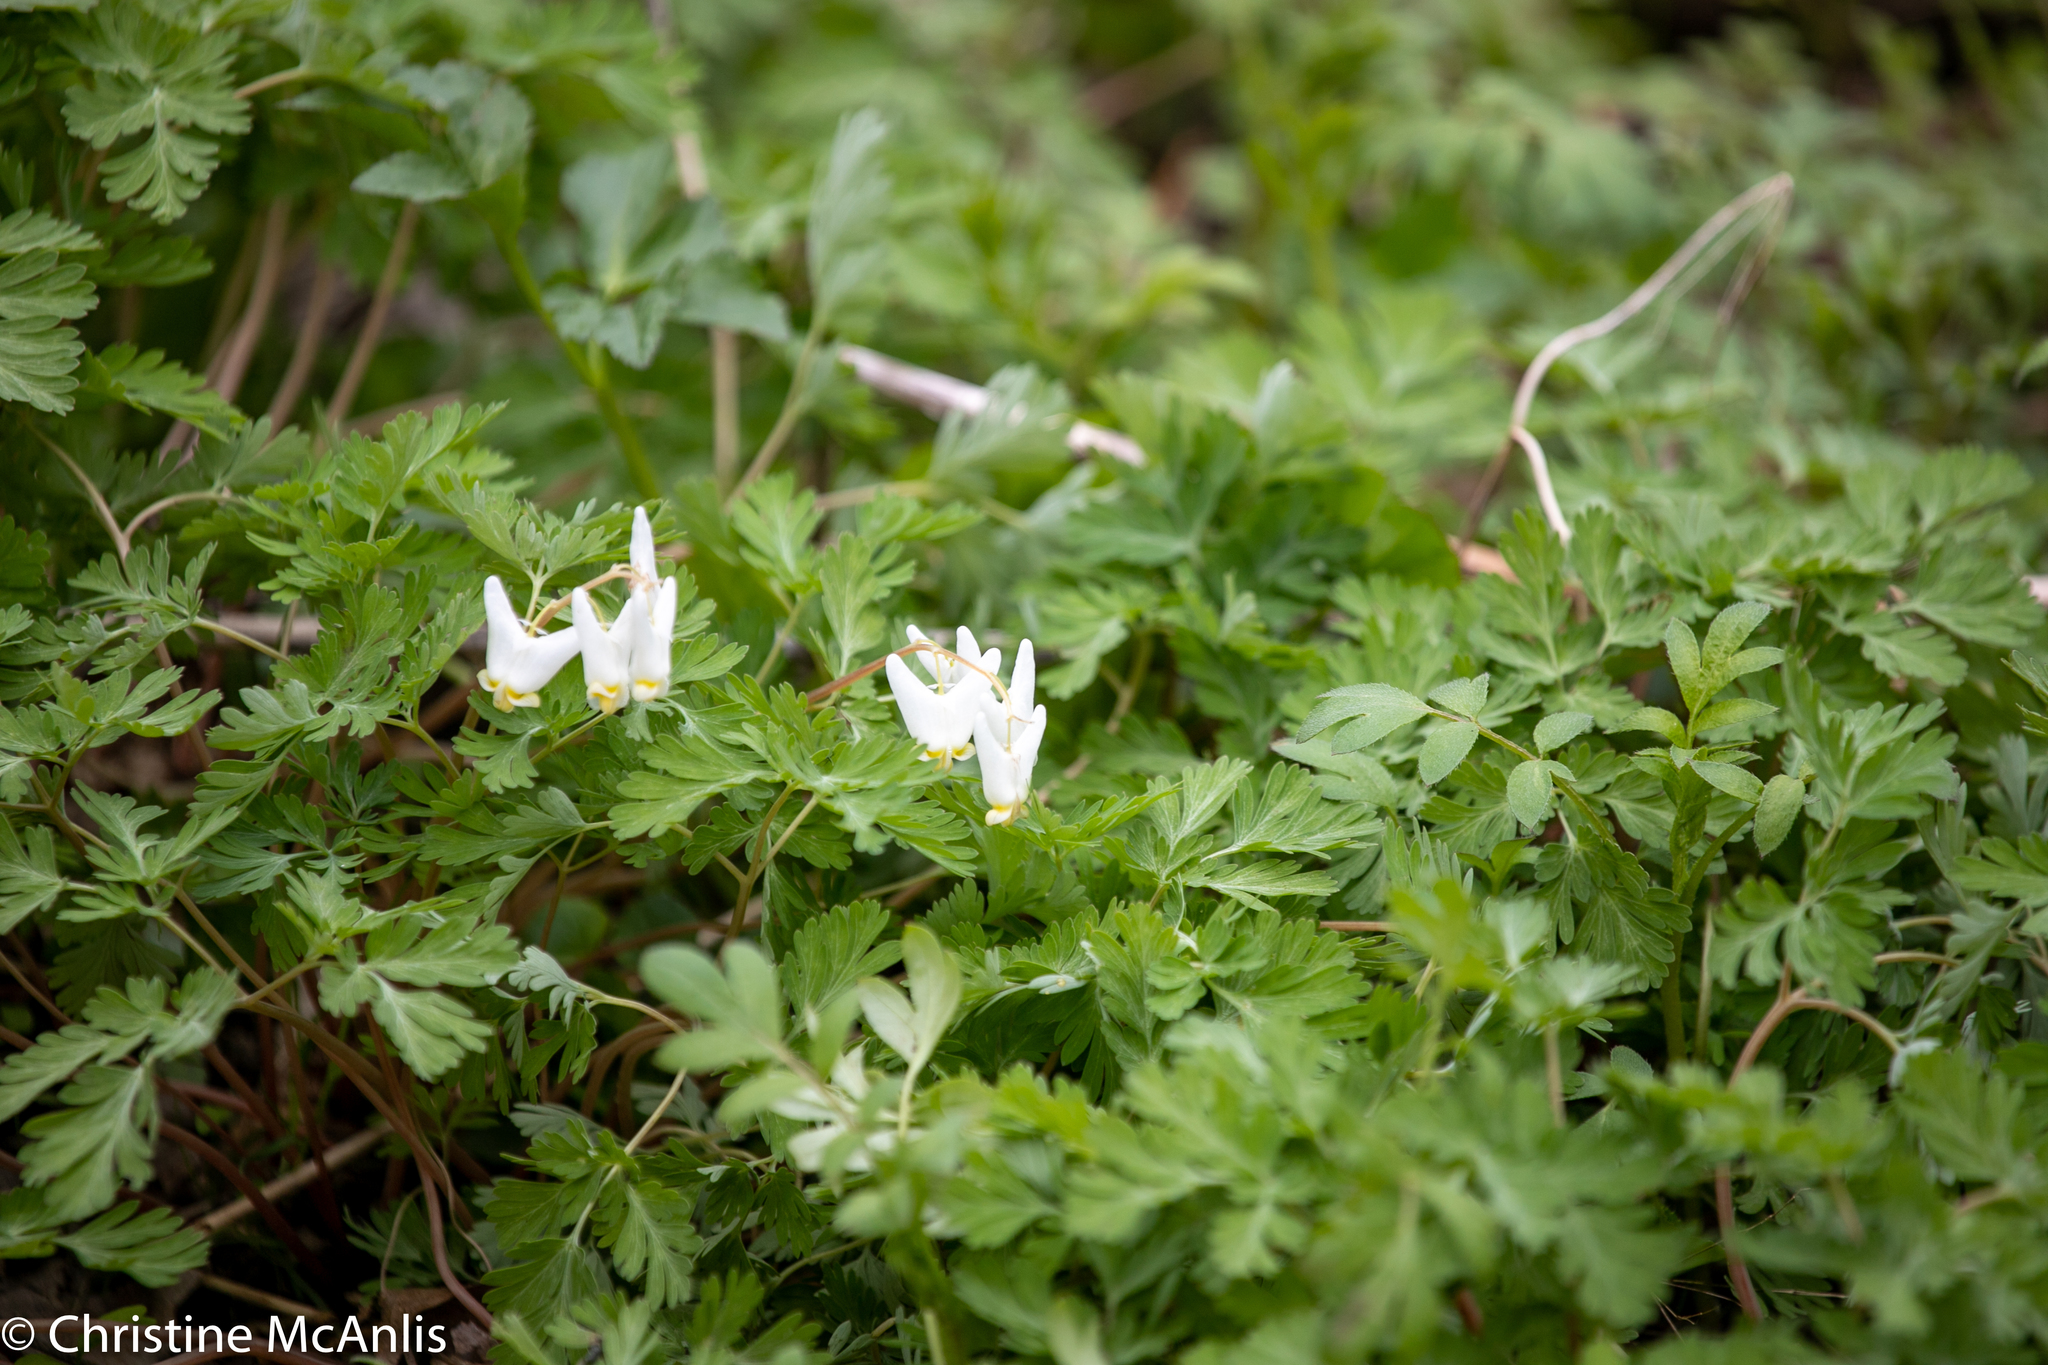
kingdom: Plantae
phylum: Tracheophyta
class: Magnoliopsida
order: Ranunculales
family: Papaveraceae
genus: Dicentra
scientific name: Dicentra cucullaria
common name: Dutchman's breeches
